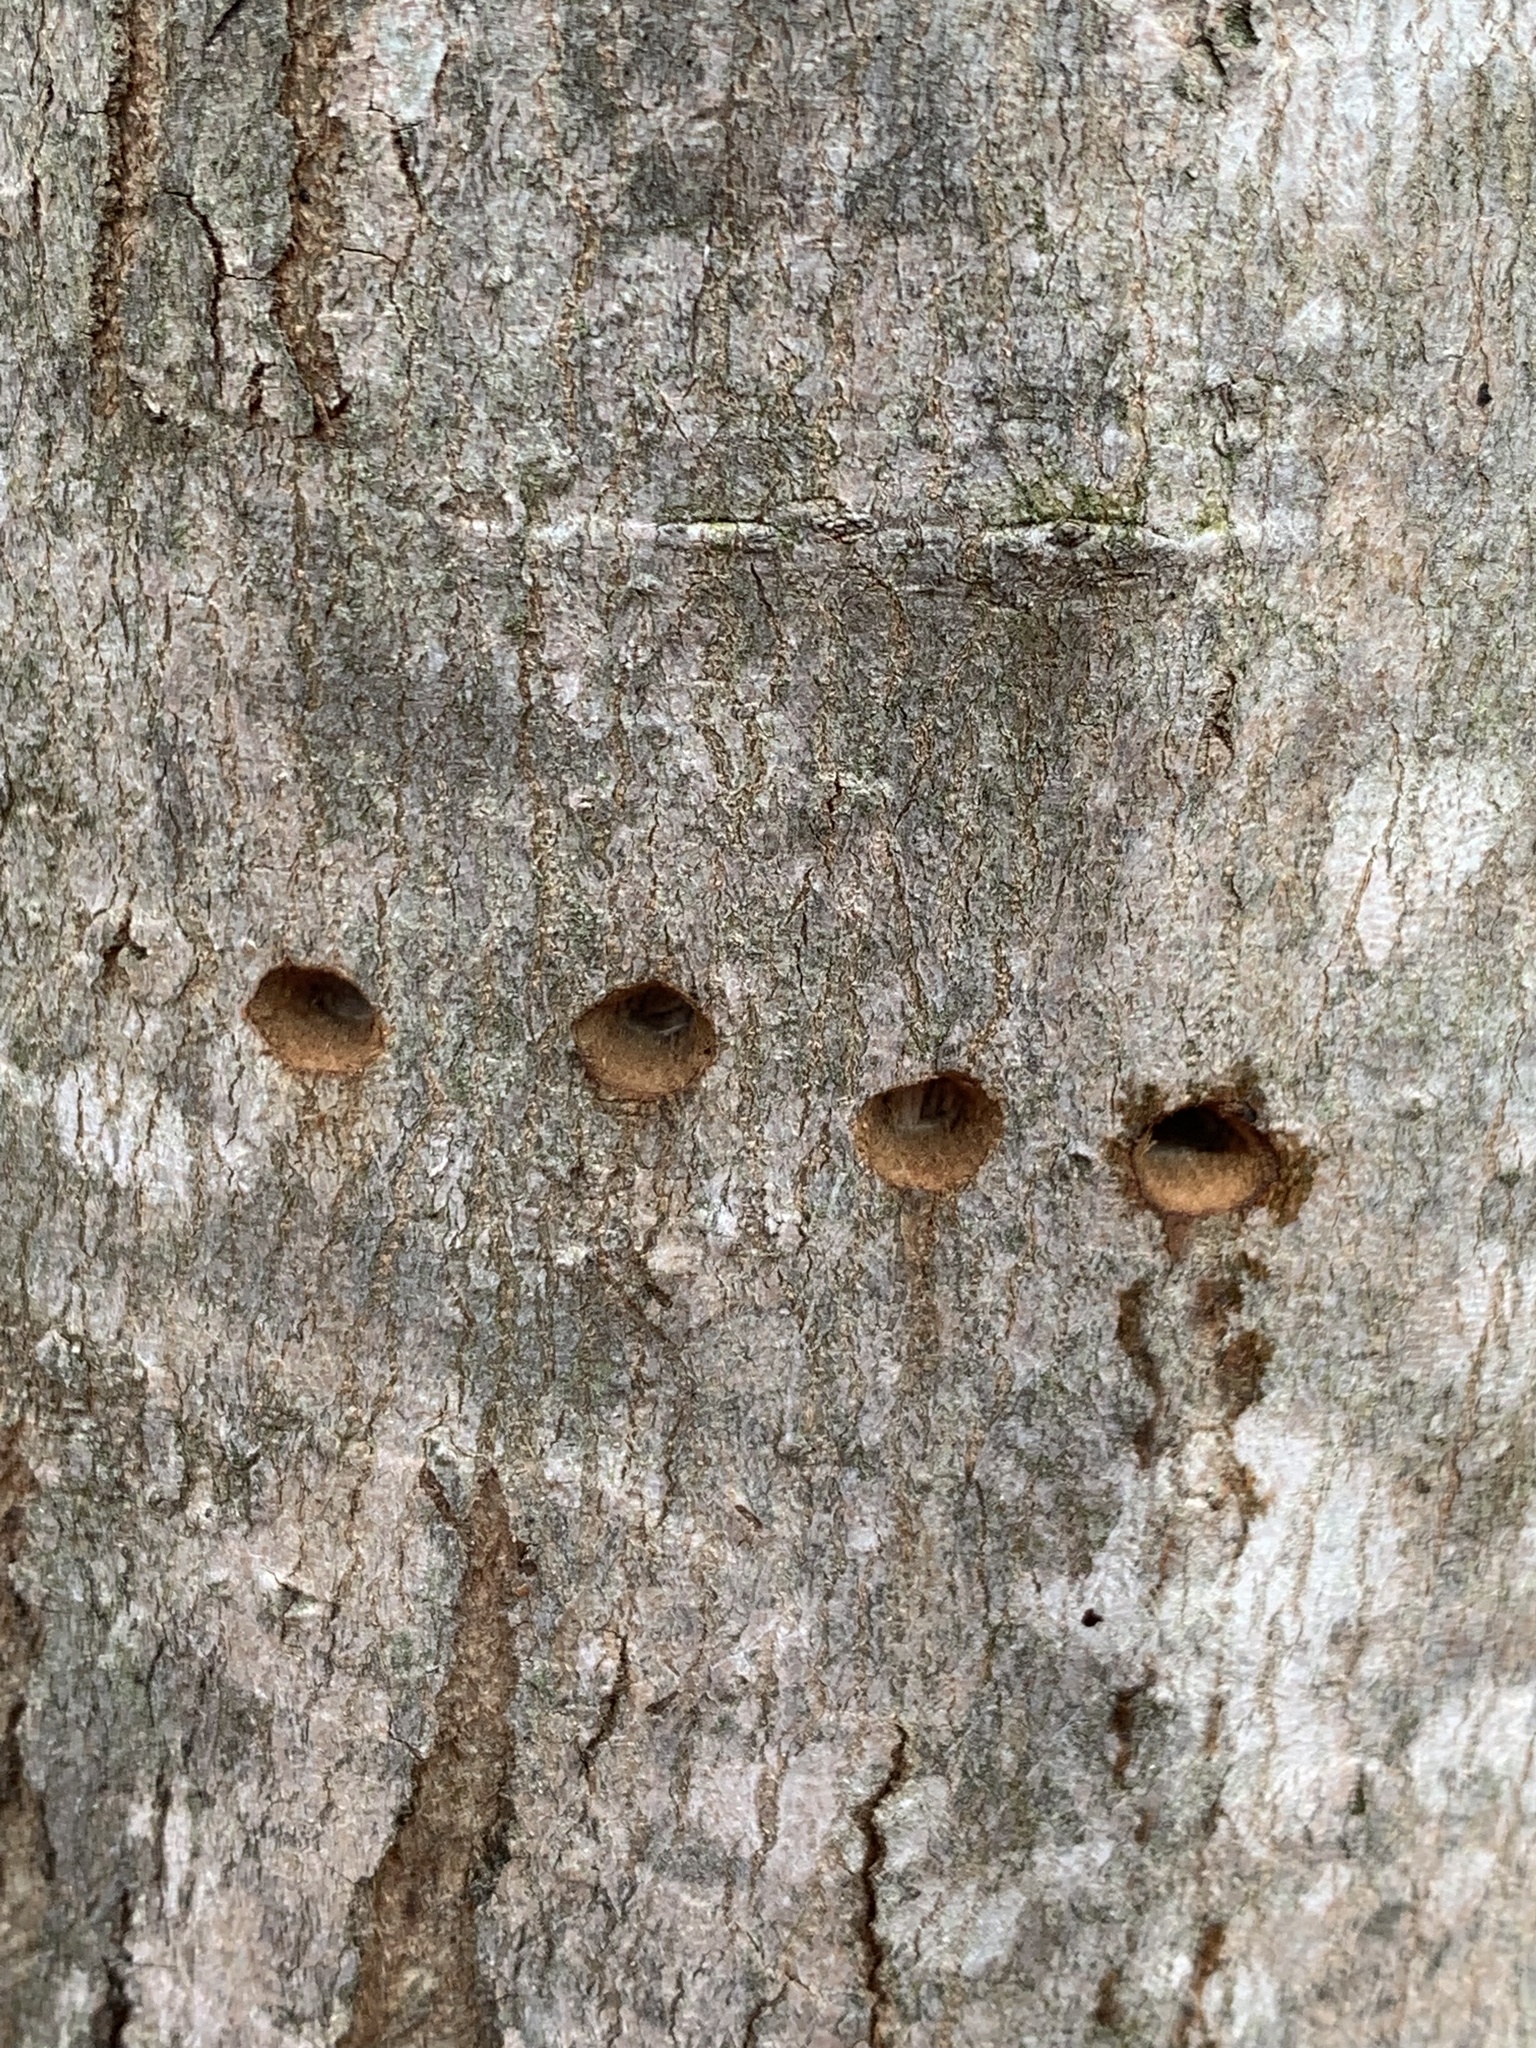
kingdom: Animalia
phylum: Chordata
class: Aves
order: Piciformes
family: Picidae
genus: Sphyrapicus
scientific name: Sphyrapicus varius
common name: Yellow-bellied sapsucker
